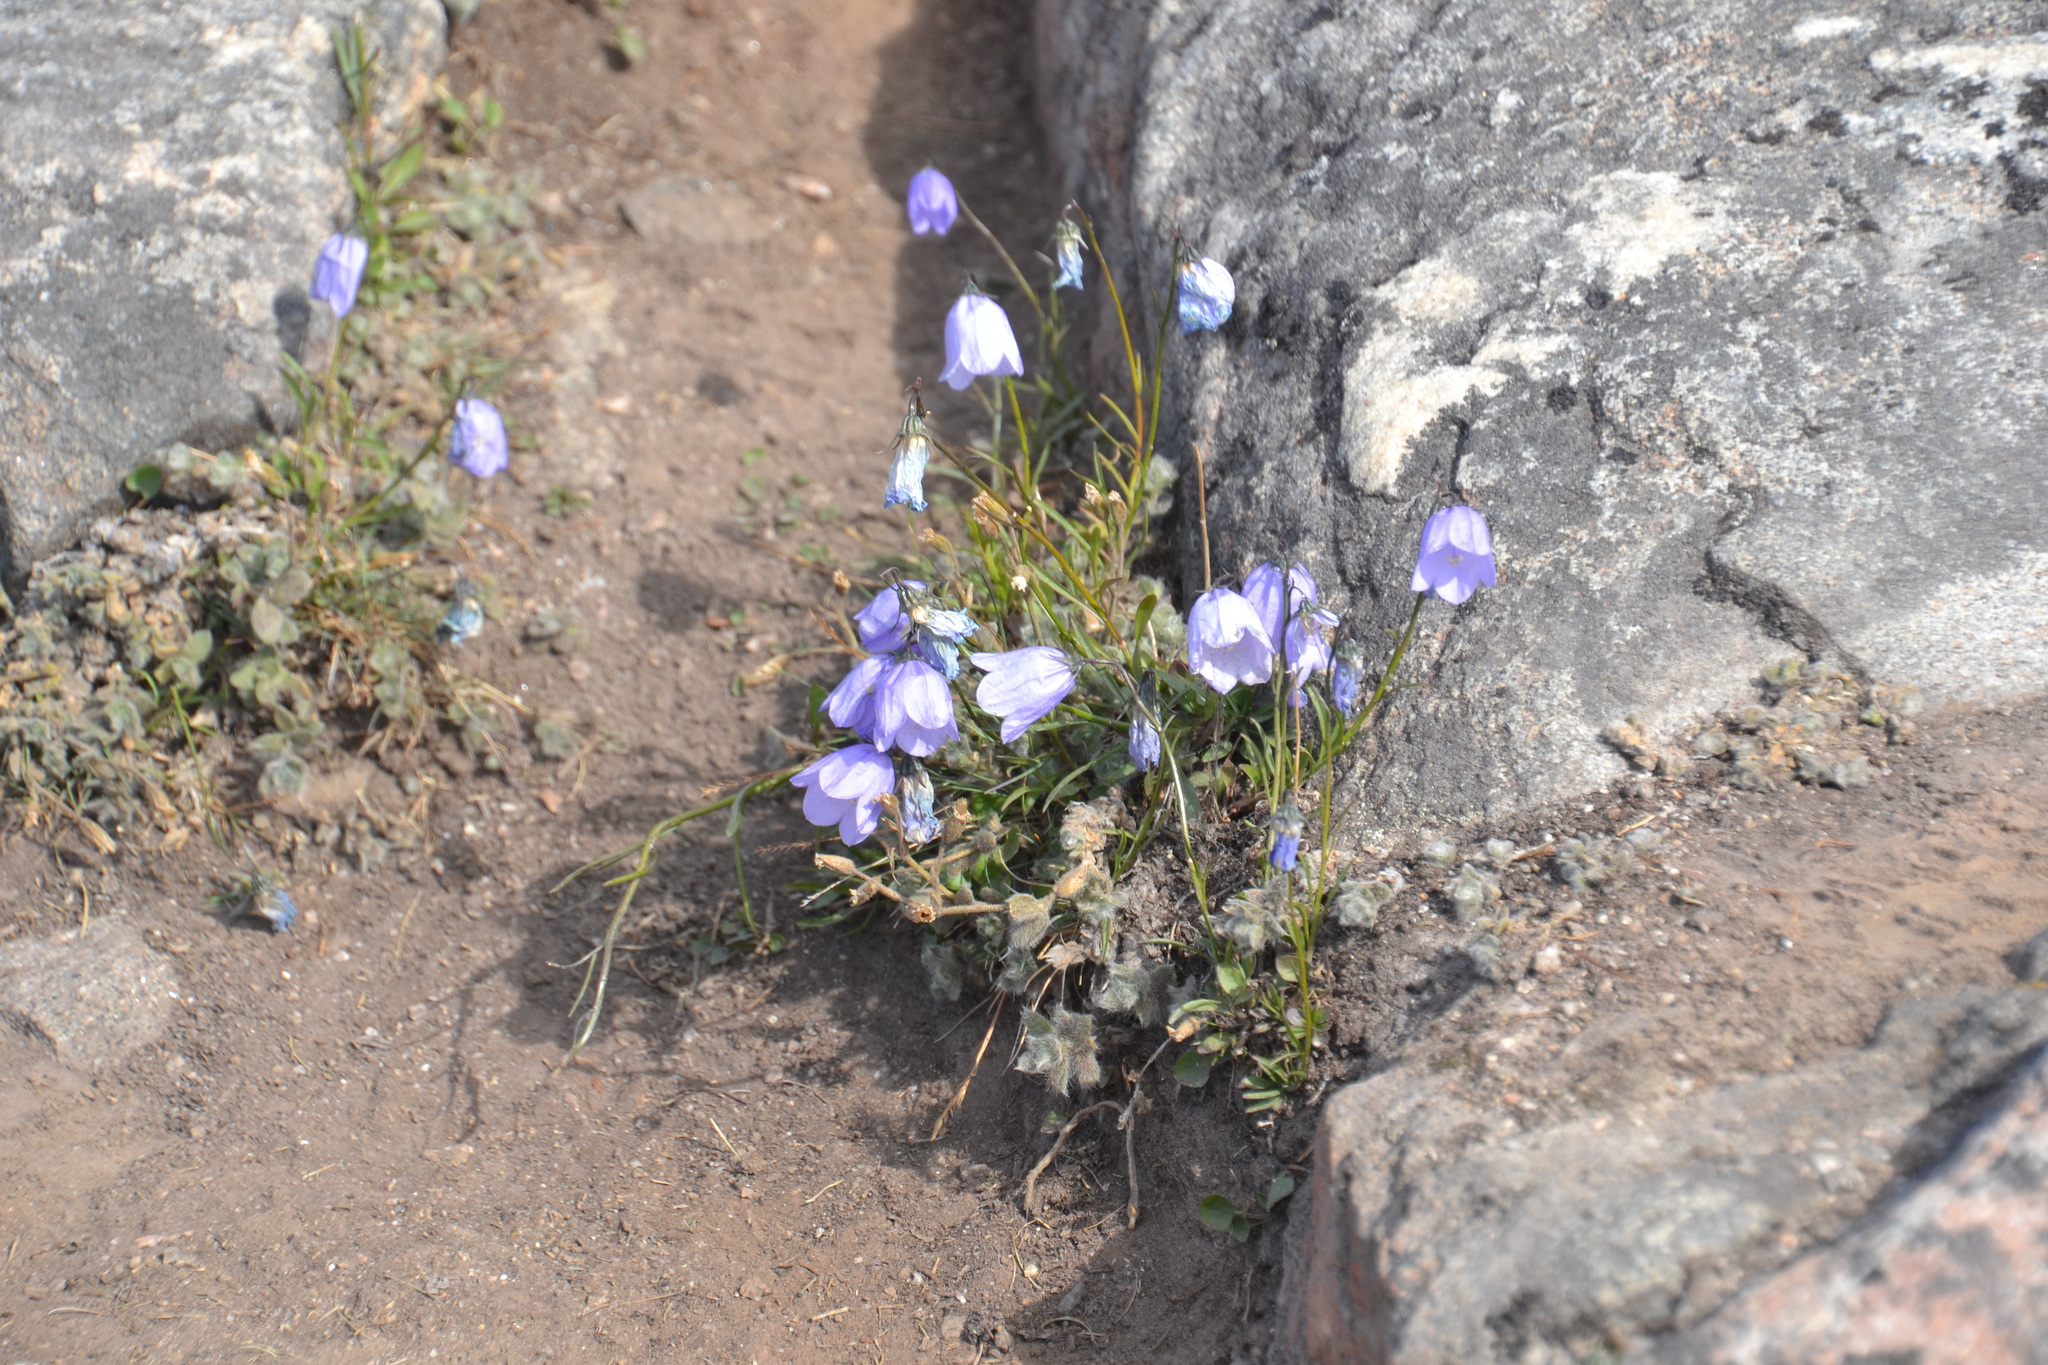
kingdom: Plantae
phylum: Tracheophyta
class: Magnoliopsida
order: Asterales
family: Campanulaceae
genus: Campanula
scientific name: Campanula giesekiana
